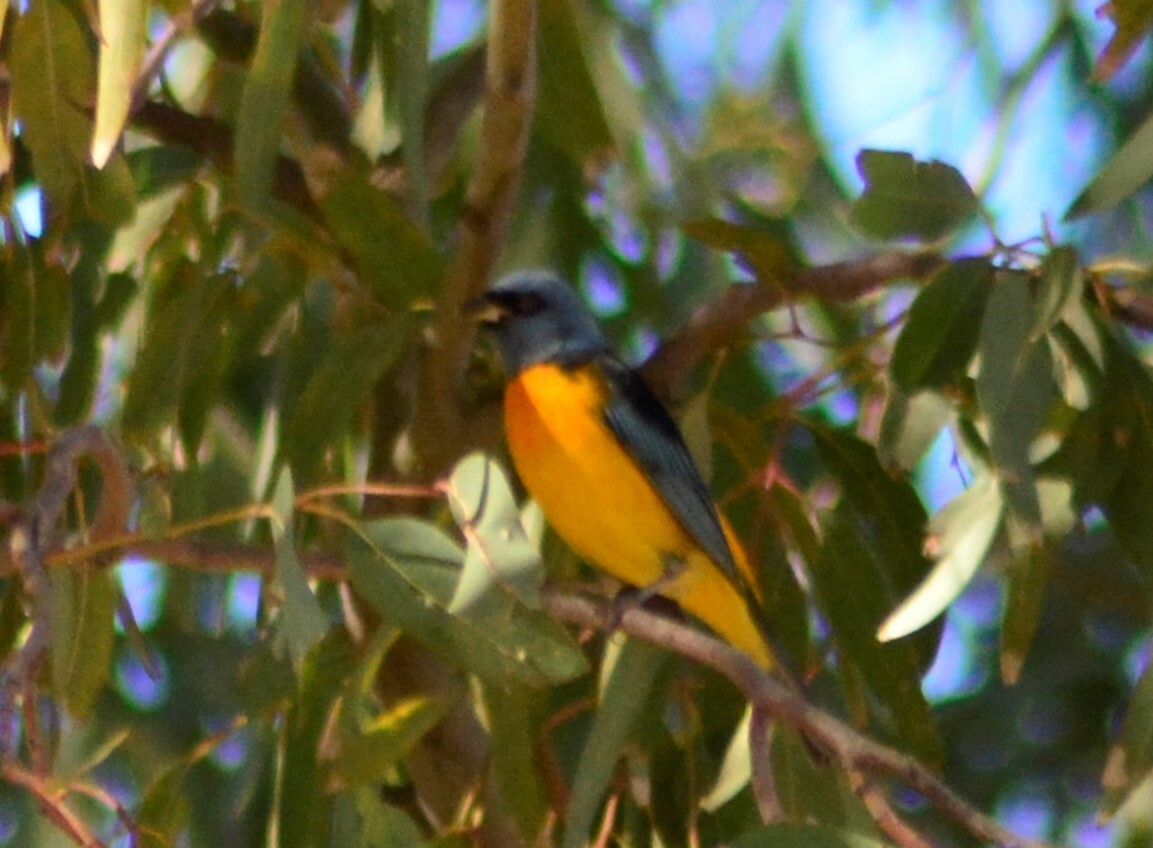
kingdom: Animalia
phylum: Chordata
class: Aves
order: Passeriformes
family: Thraupidae
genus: Rauenia
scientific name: Rauenia bonariensis
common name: Blue-and-yellow tanager
